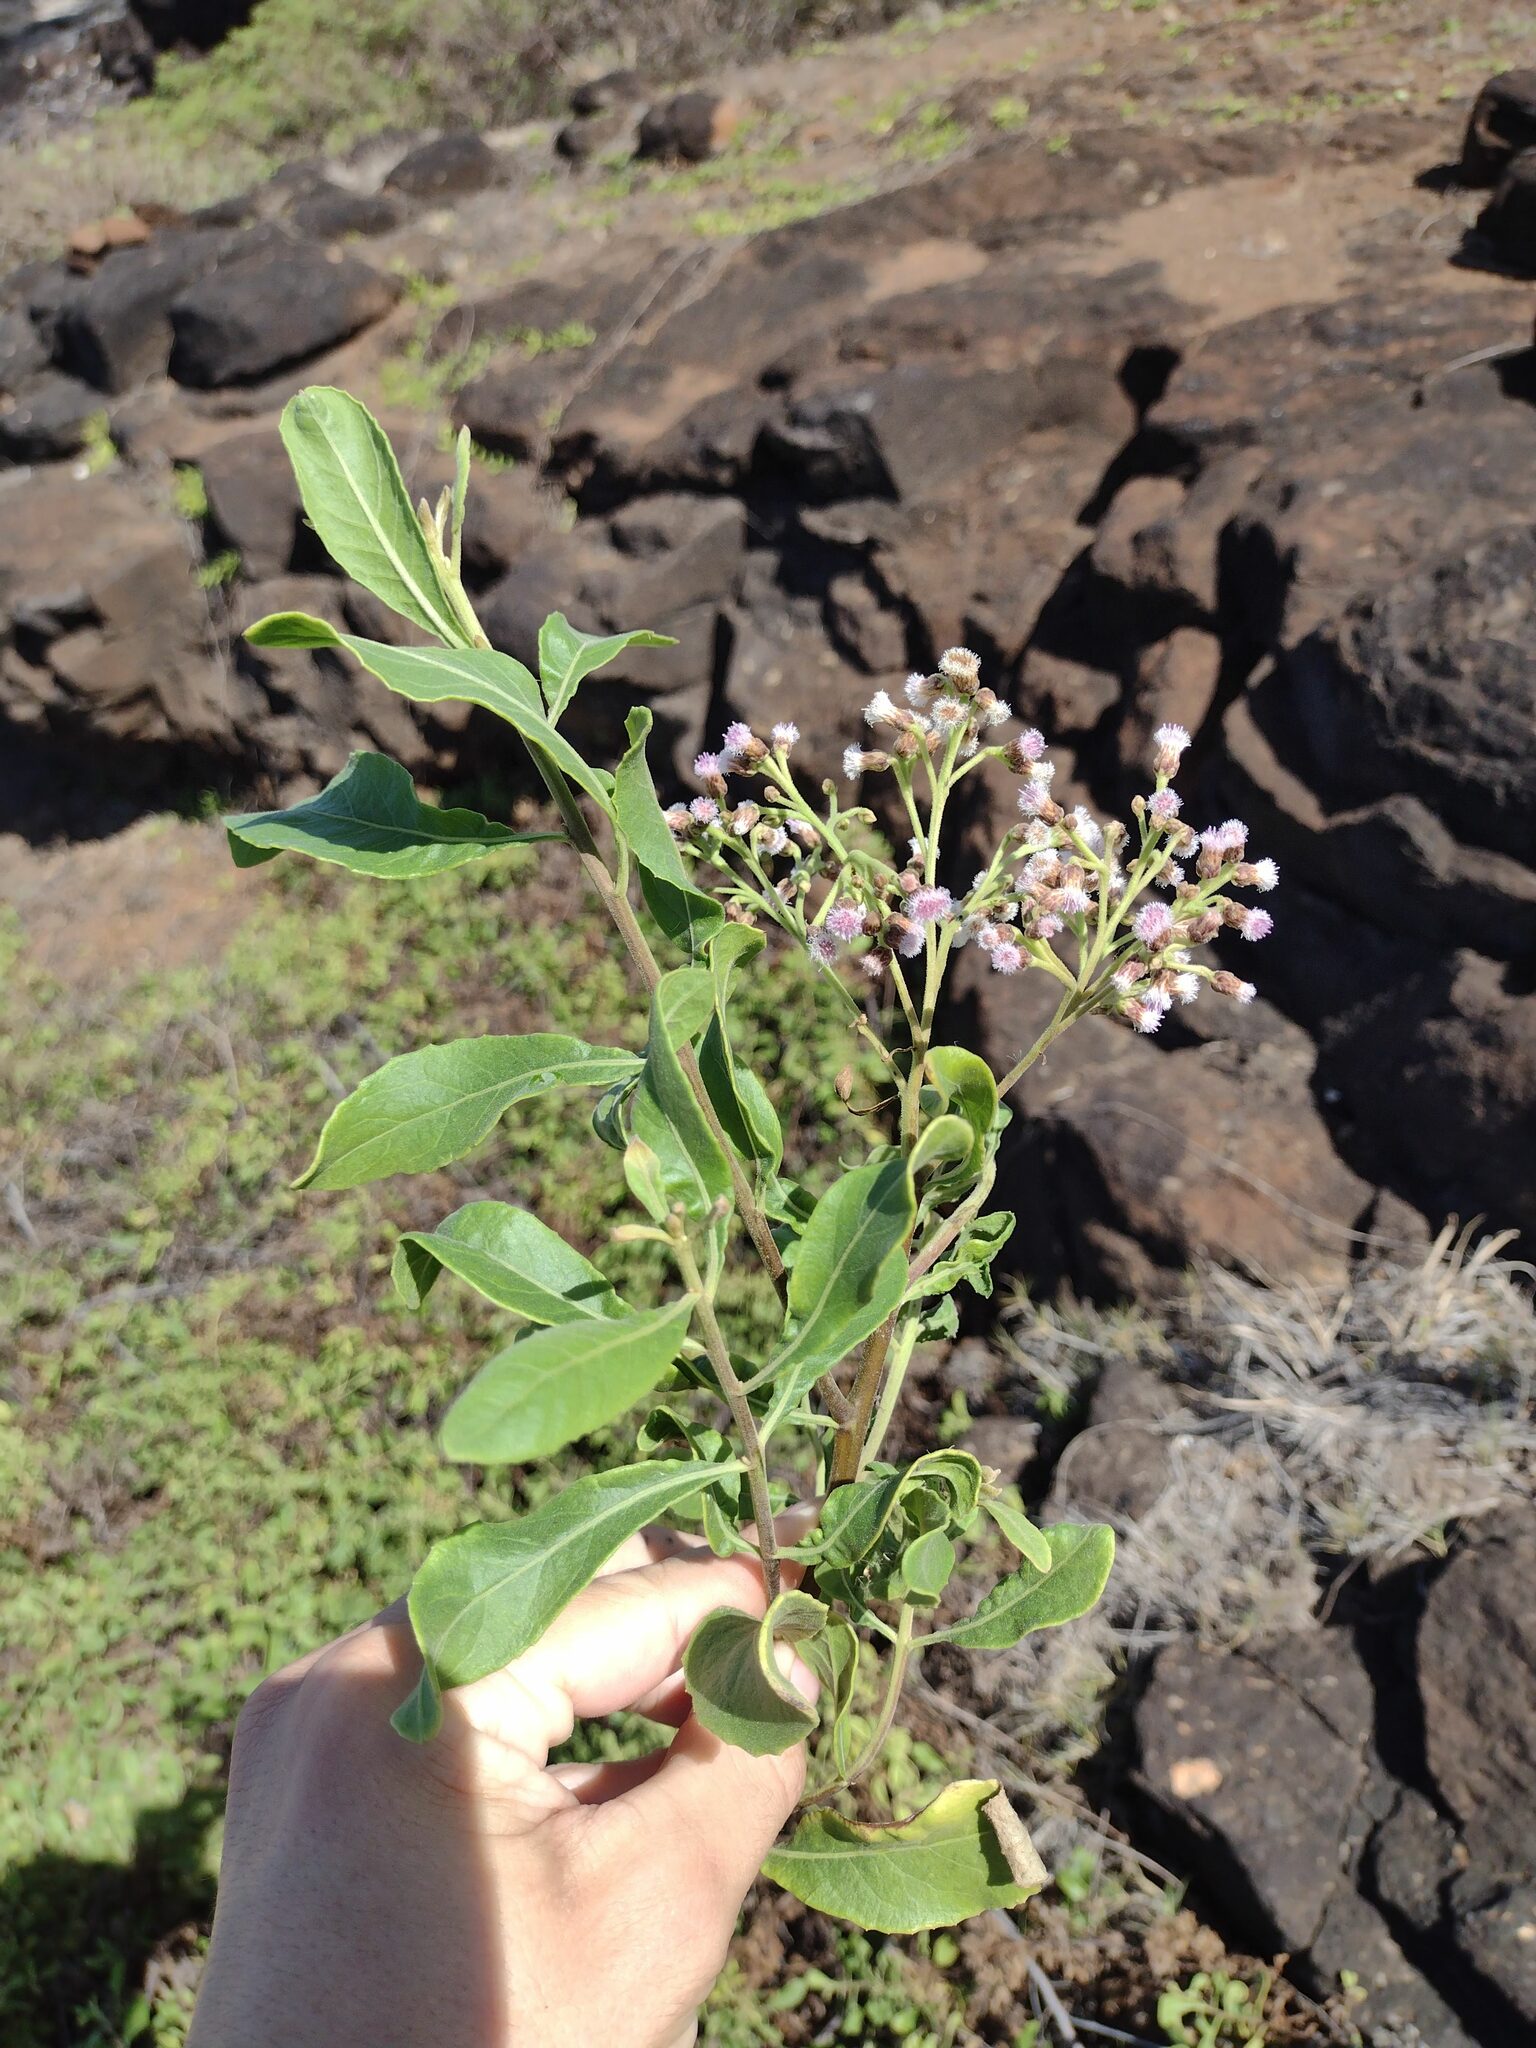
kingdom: Plantae
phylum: Tracheophyta
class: Magnoliopsida
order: Asterales
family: Asteraceae
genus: Pluchea
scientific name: Pluchea fosbergii
